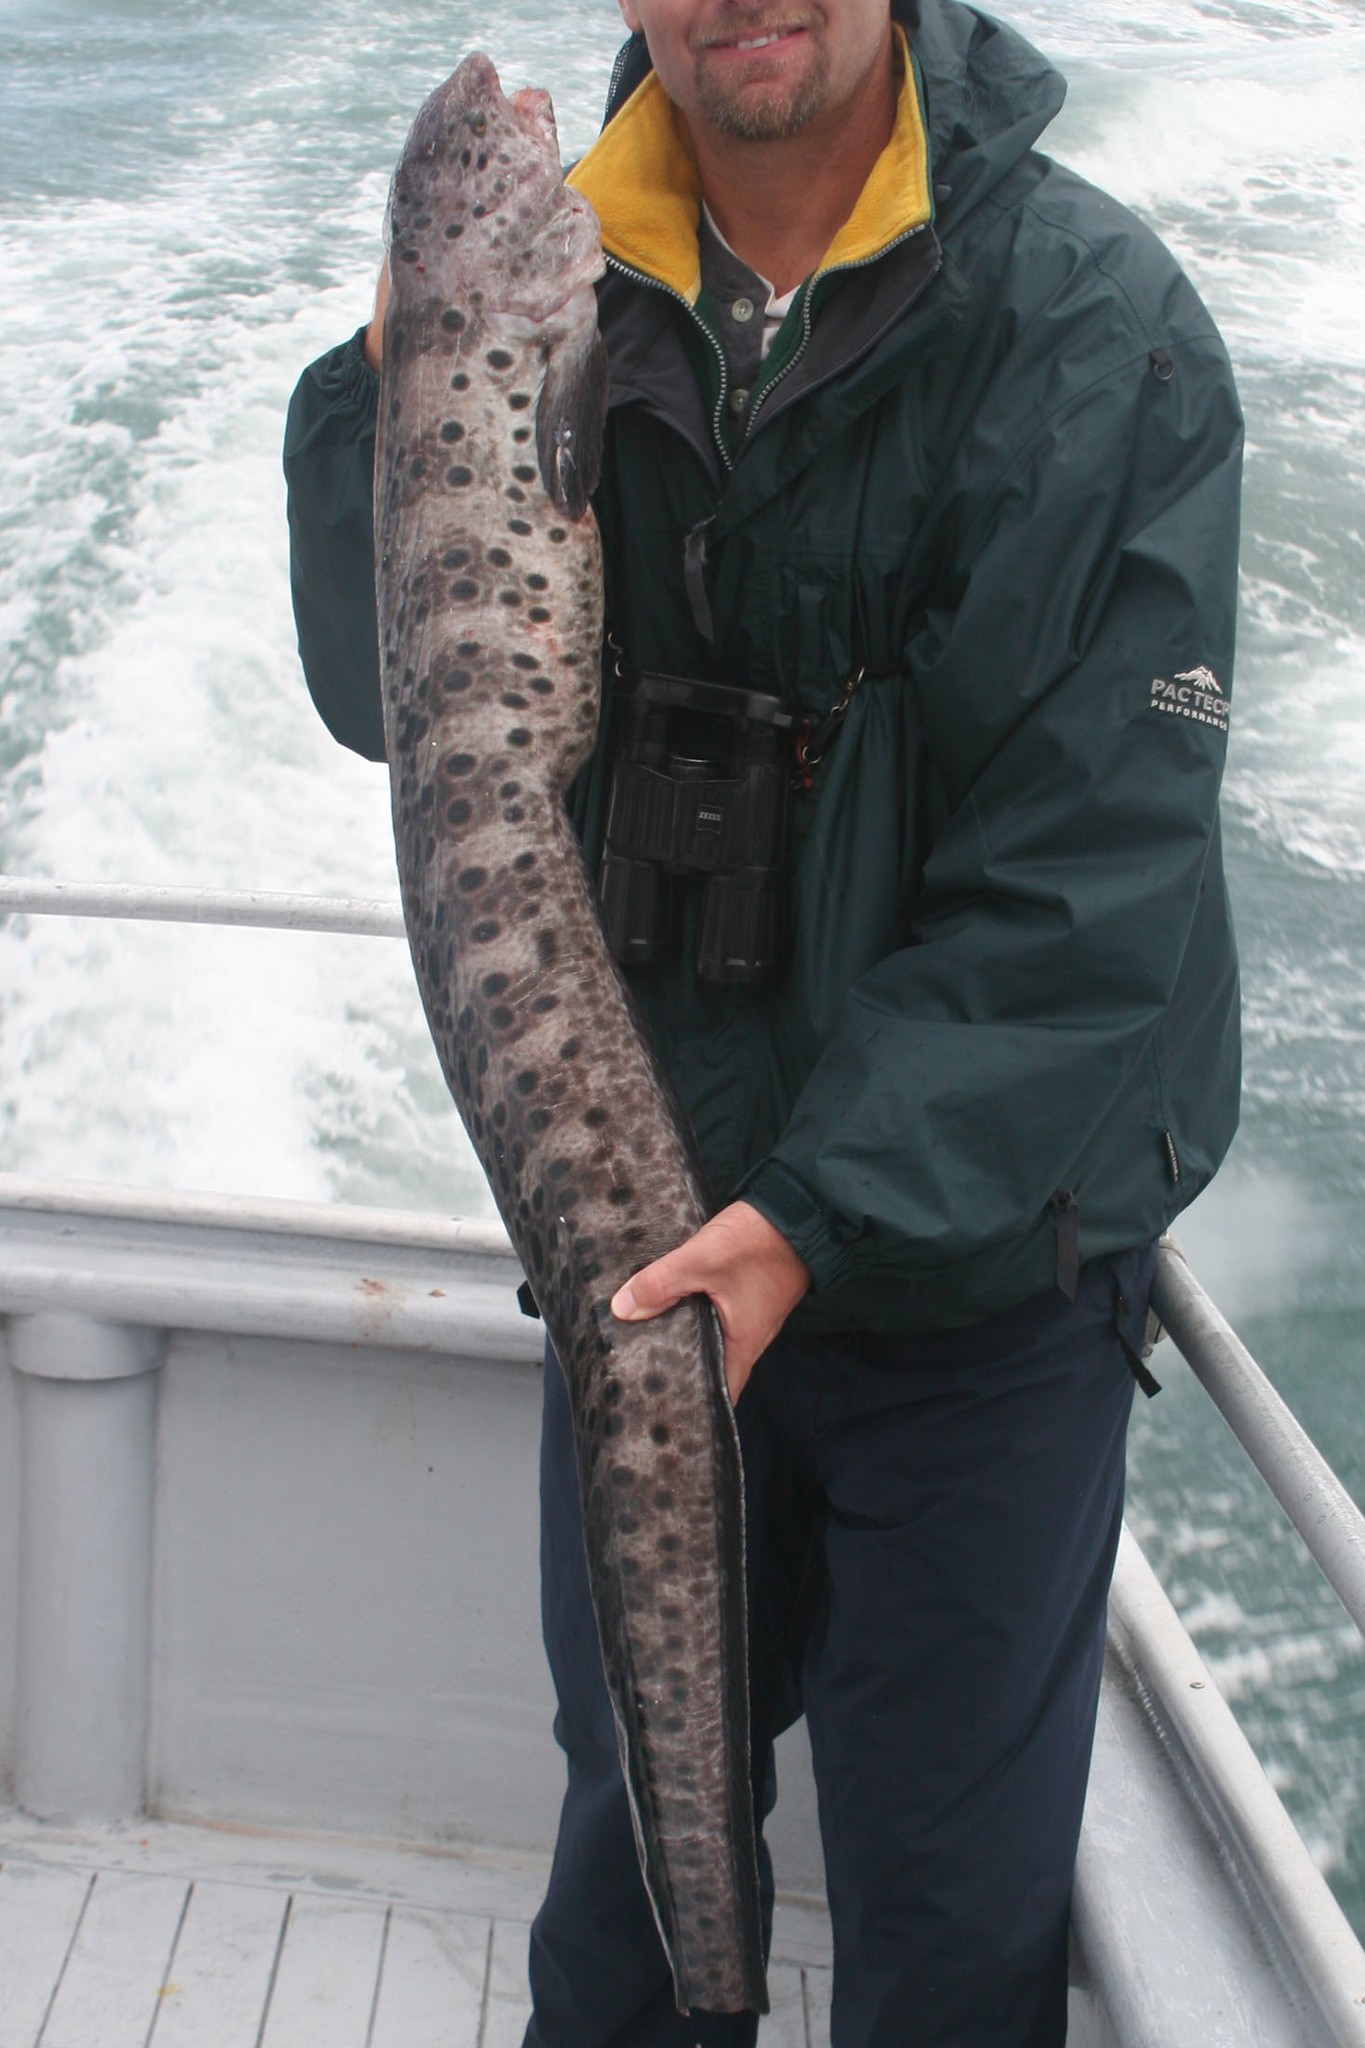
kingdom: Animalia
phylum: Chordata
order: Perciformes
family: Anarhichadidae
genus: Anarrhichthys
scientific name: Anarrhichthys ocellatus
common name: Wolf-eel
